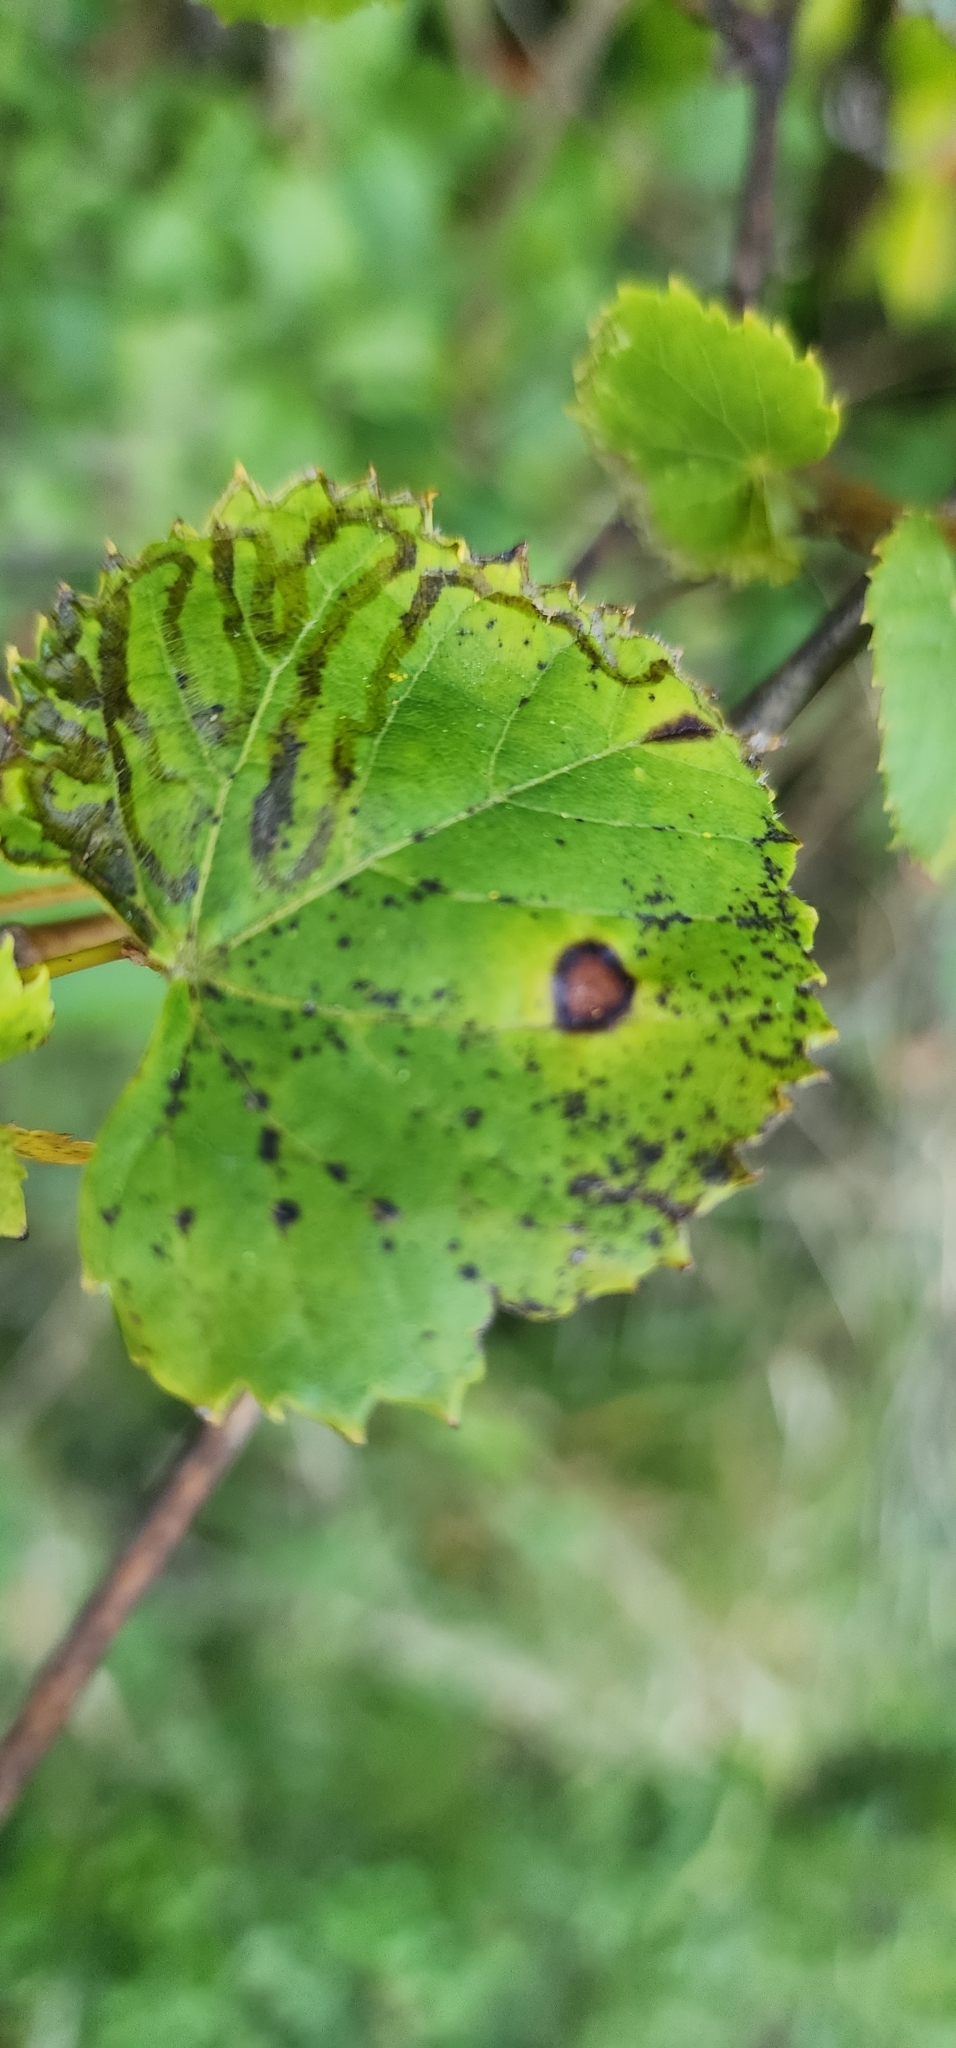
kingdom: Animalia
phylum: Arthropoda
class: Insecta
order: Lepidoptera
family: Gracillariidae
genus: Phyllocnistis
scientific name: Phyllocnistis vitegenella
